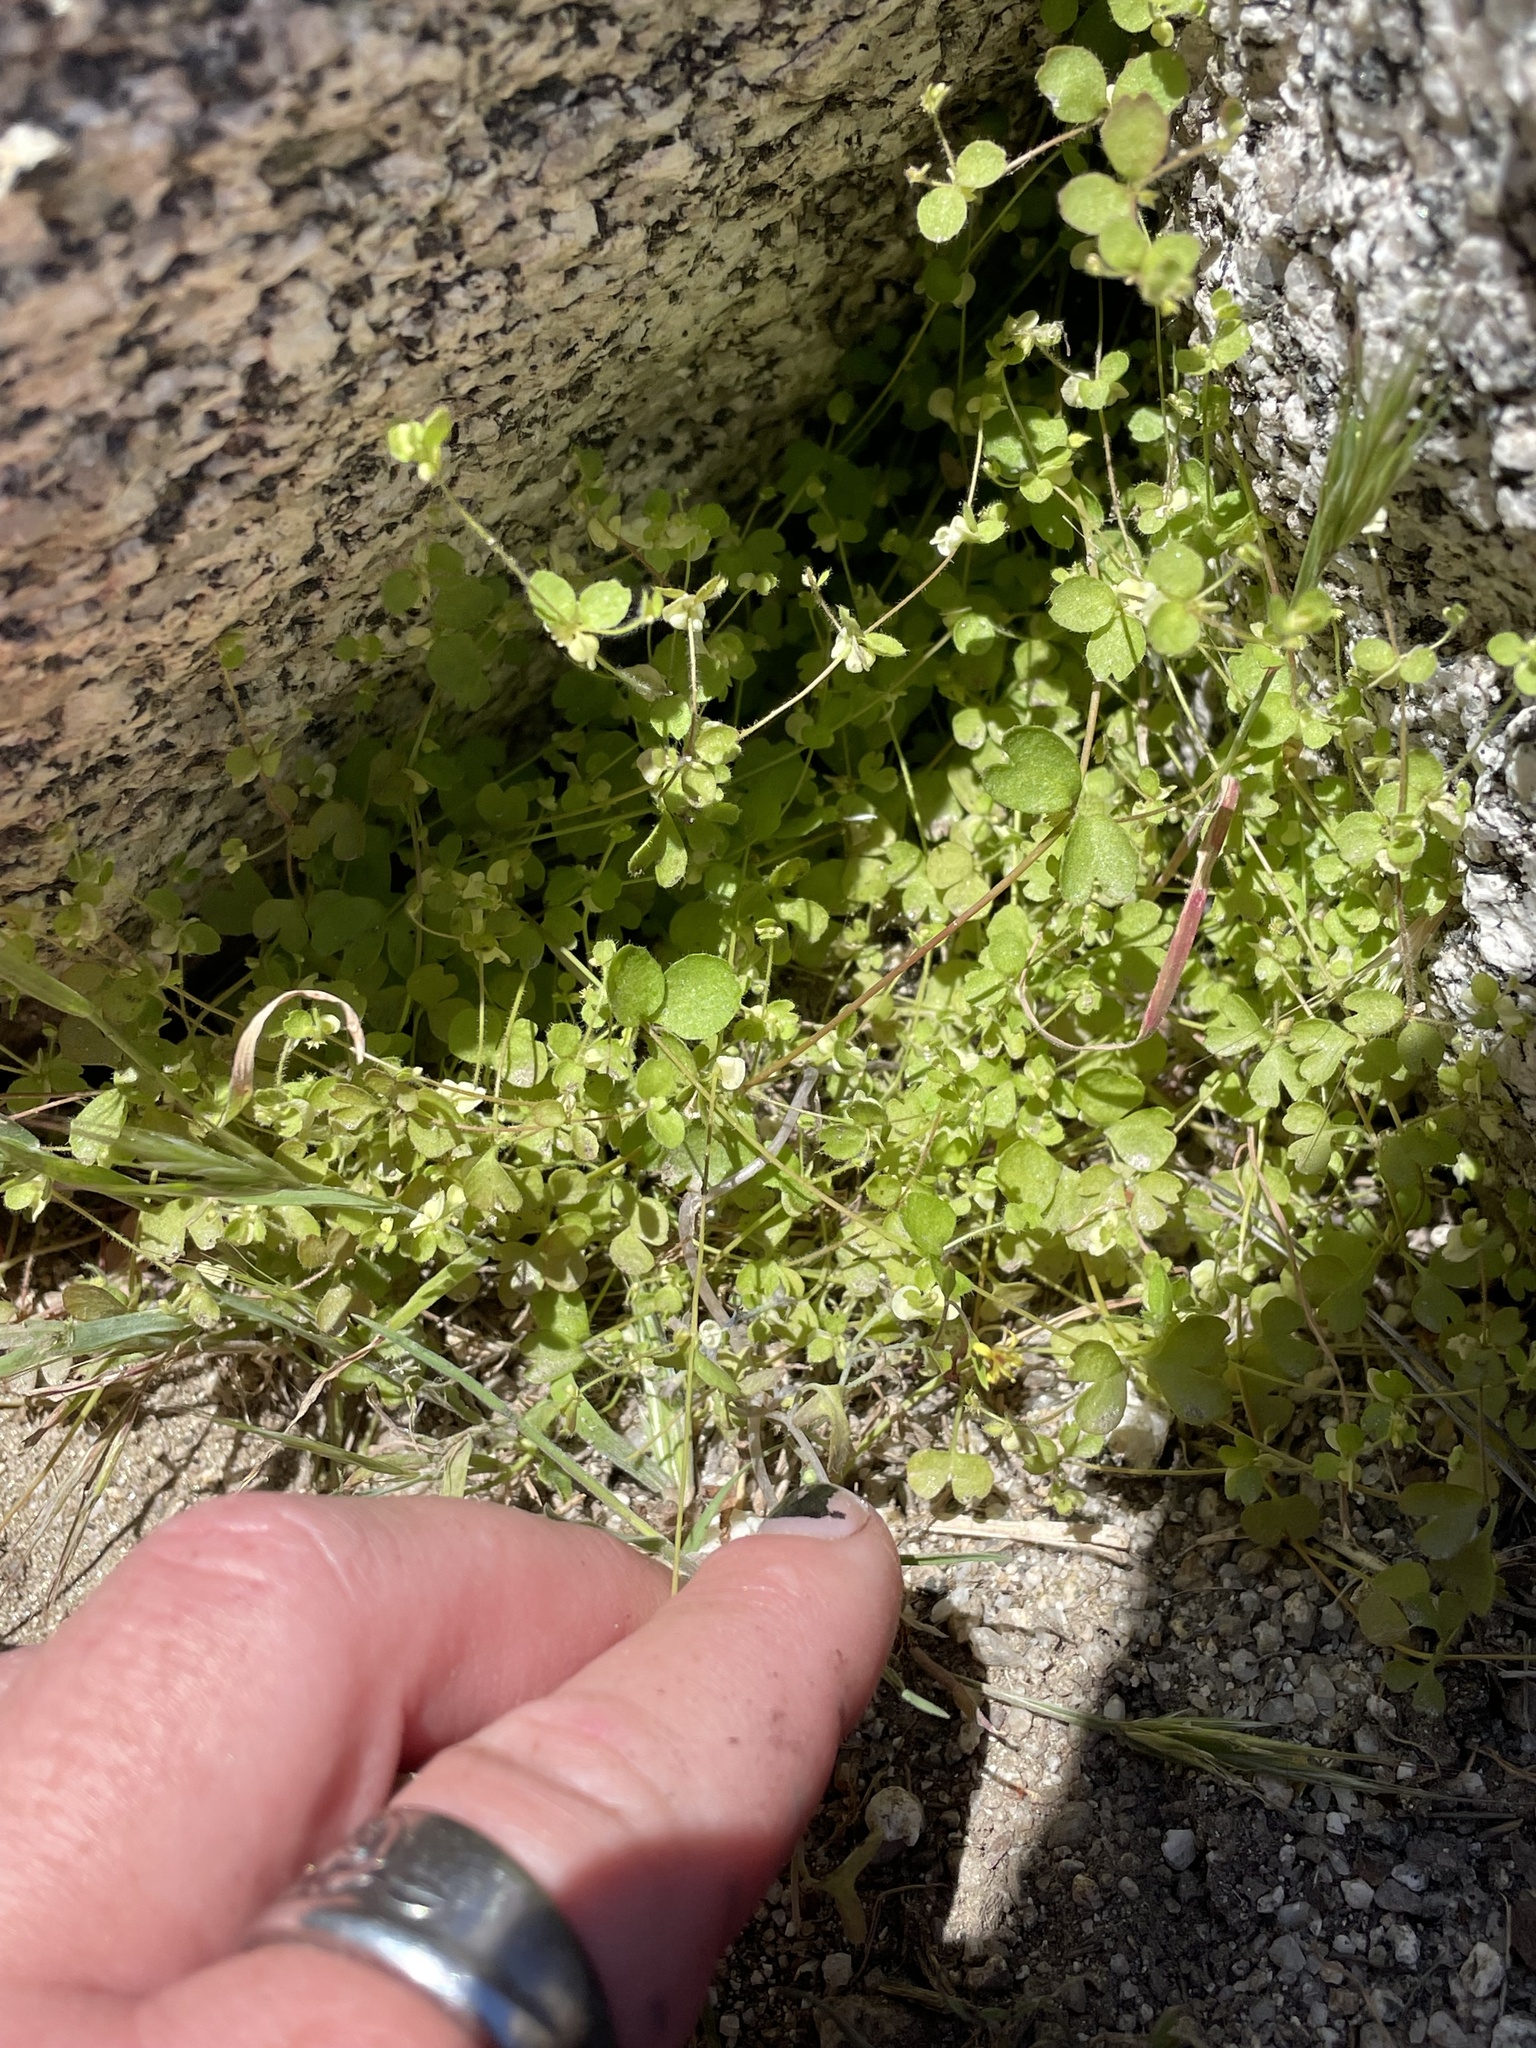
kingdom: Plantae
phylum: Tracheophyta
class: Magnoliopsida
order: Caryophyllales
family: Polygonaceae
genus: Pterostegia
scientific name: Pterostegia drymarioides
